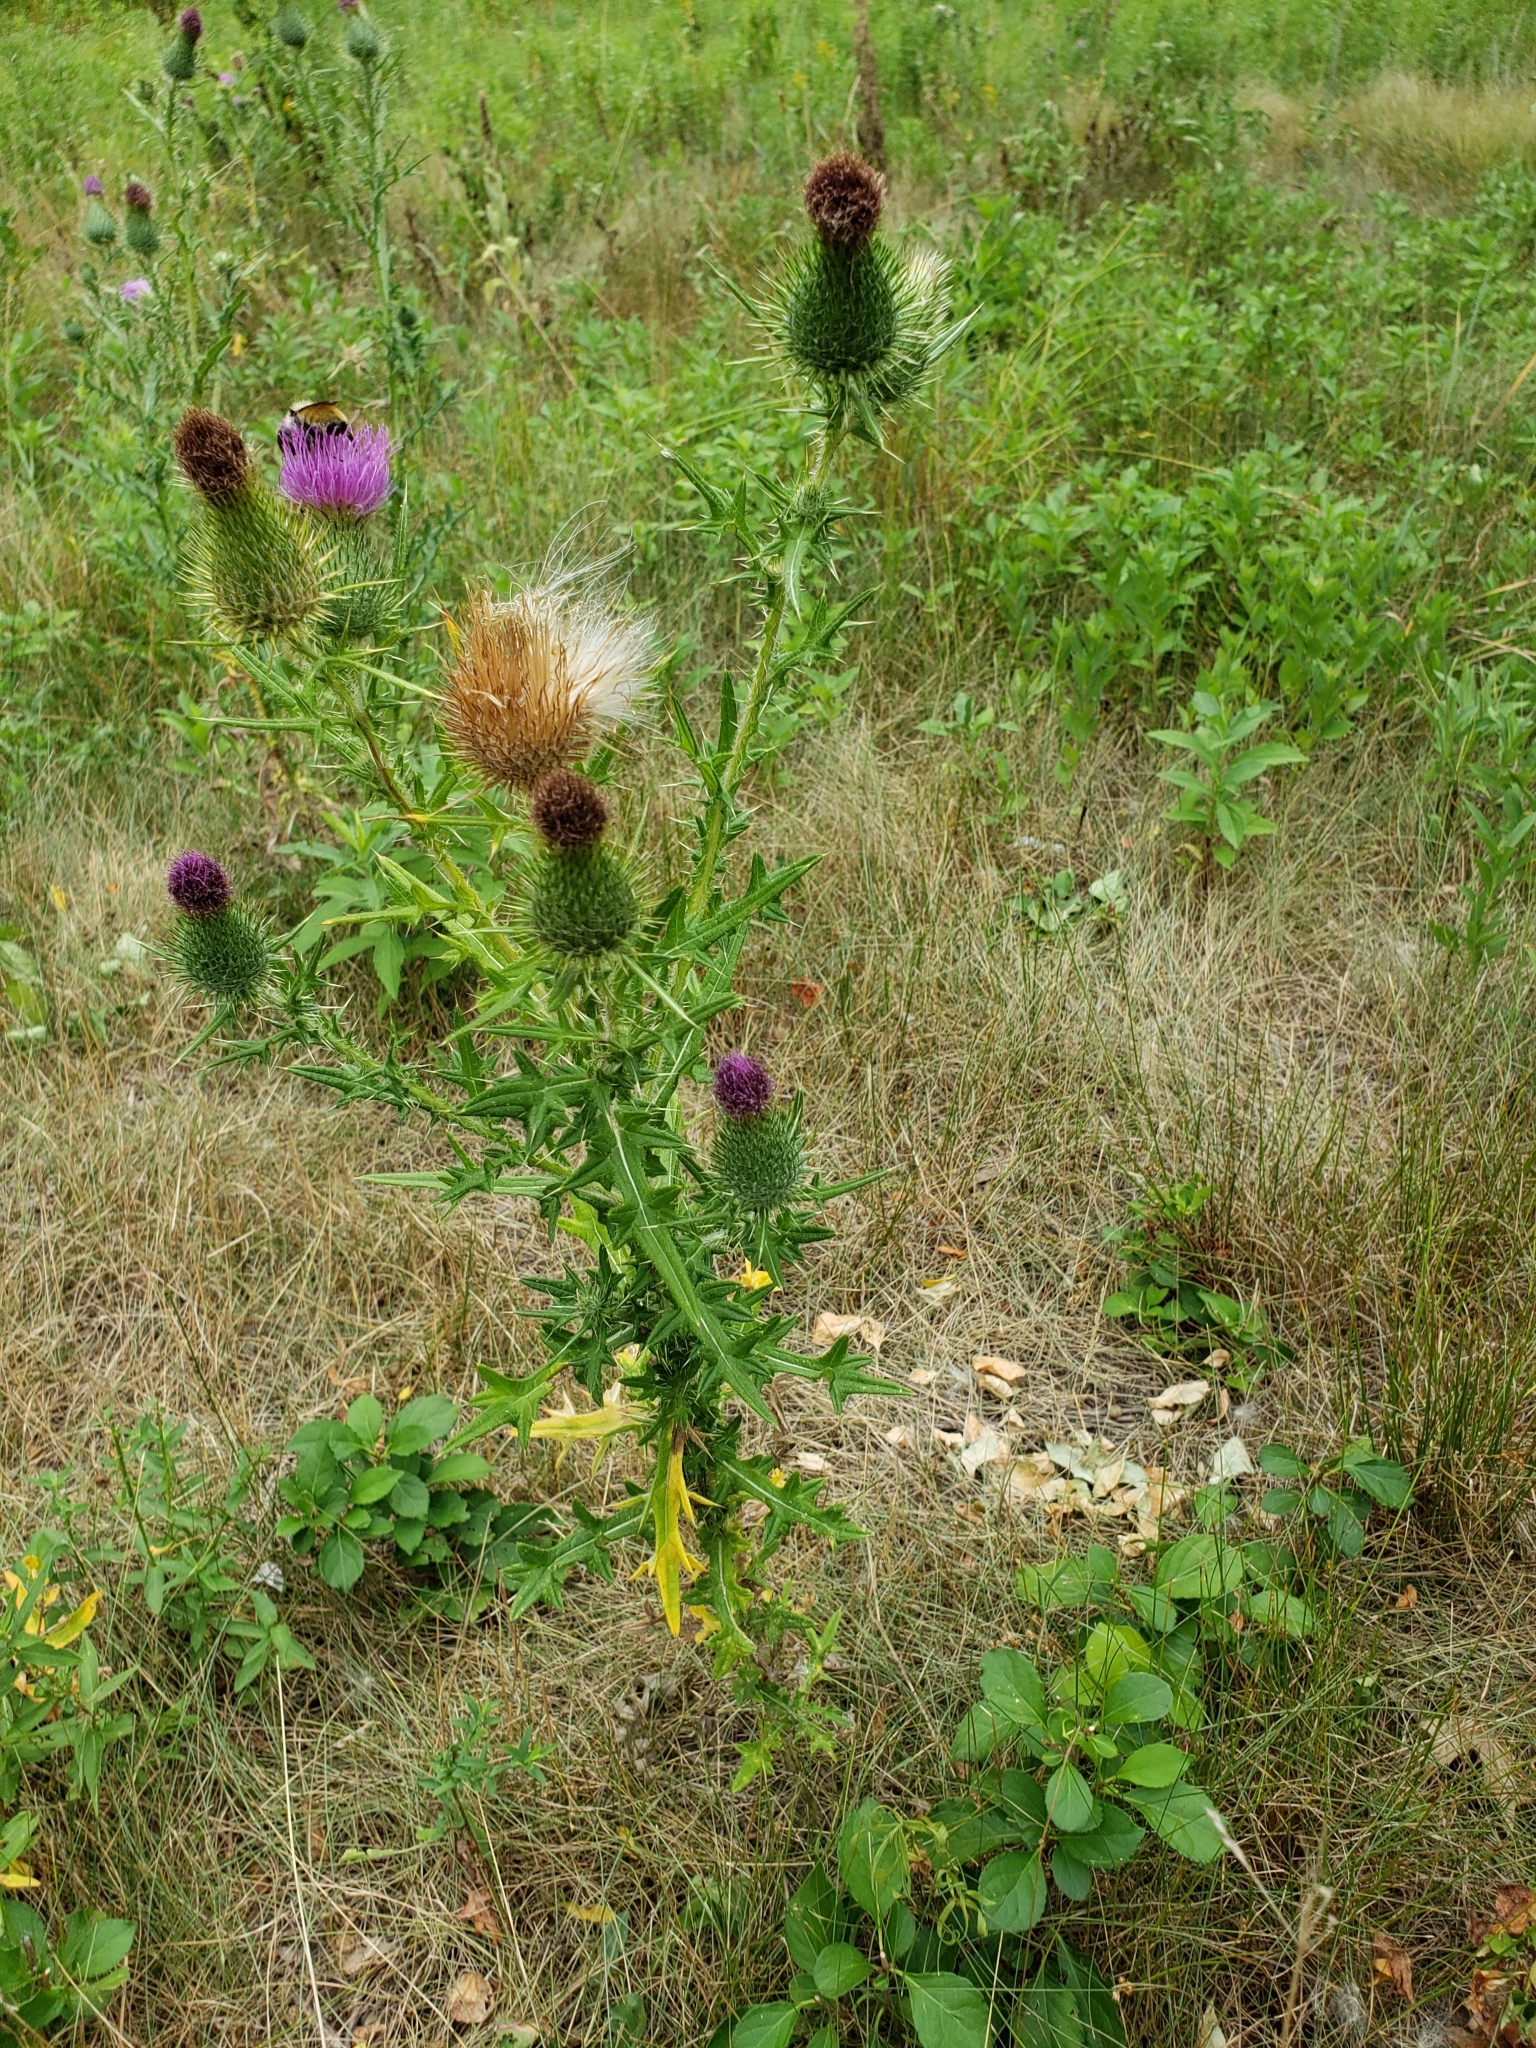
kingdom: Plantae
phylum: Tracheophyta
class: Magnoliopsida
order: Asterales
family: Asteraceae
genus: Cirsium
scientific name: Cirsium vulgare
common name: Bull thistle
